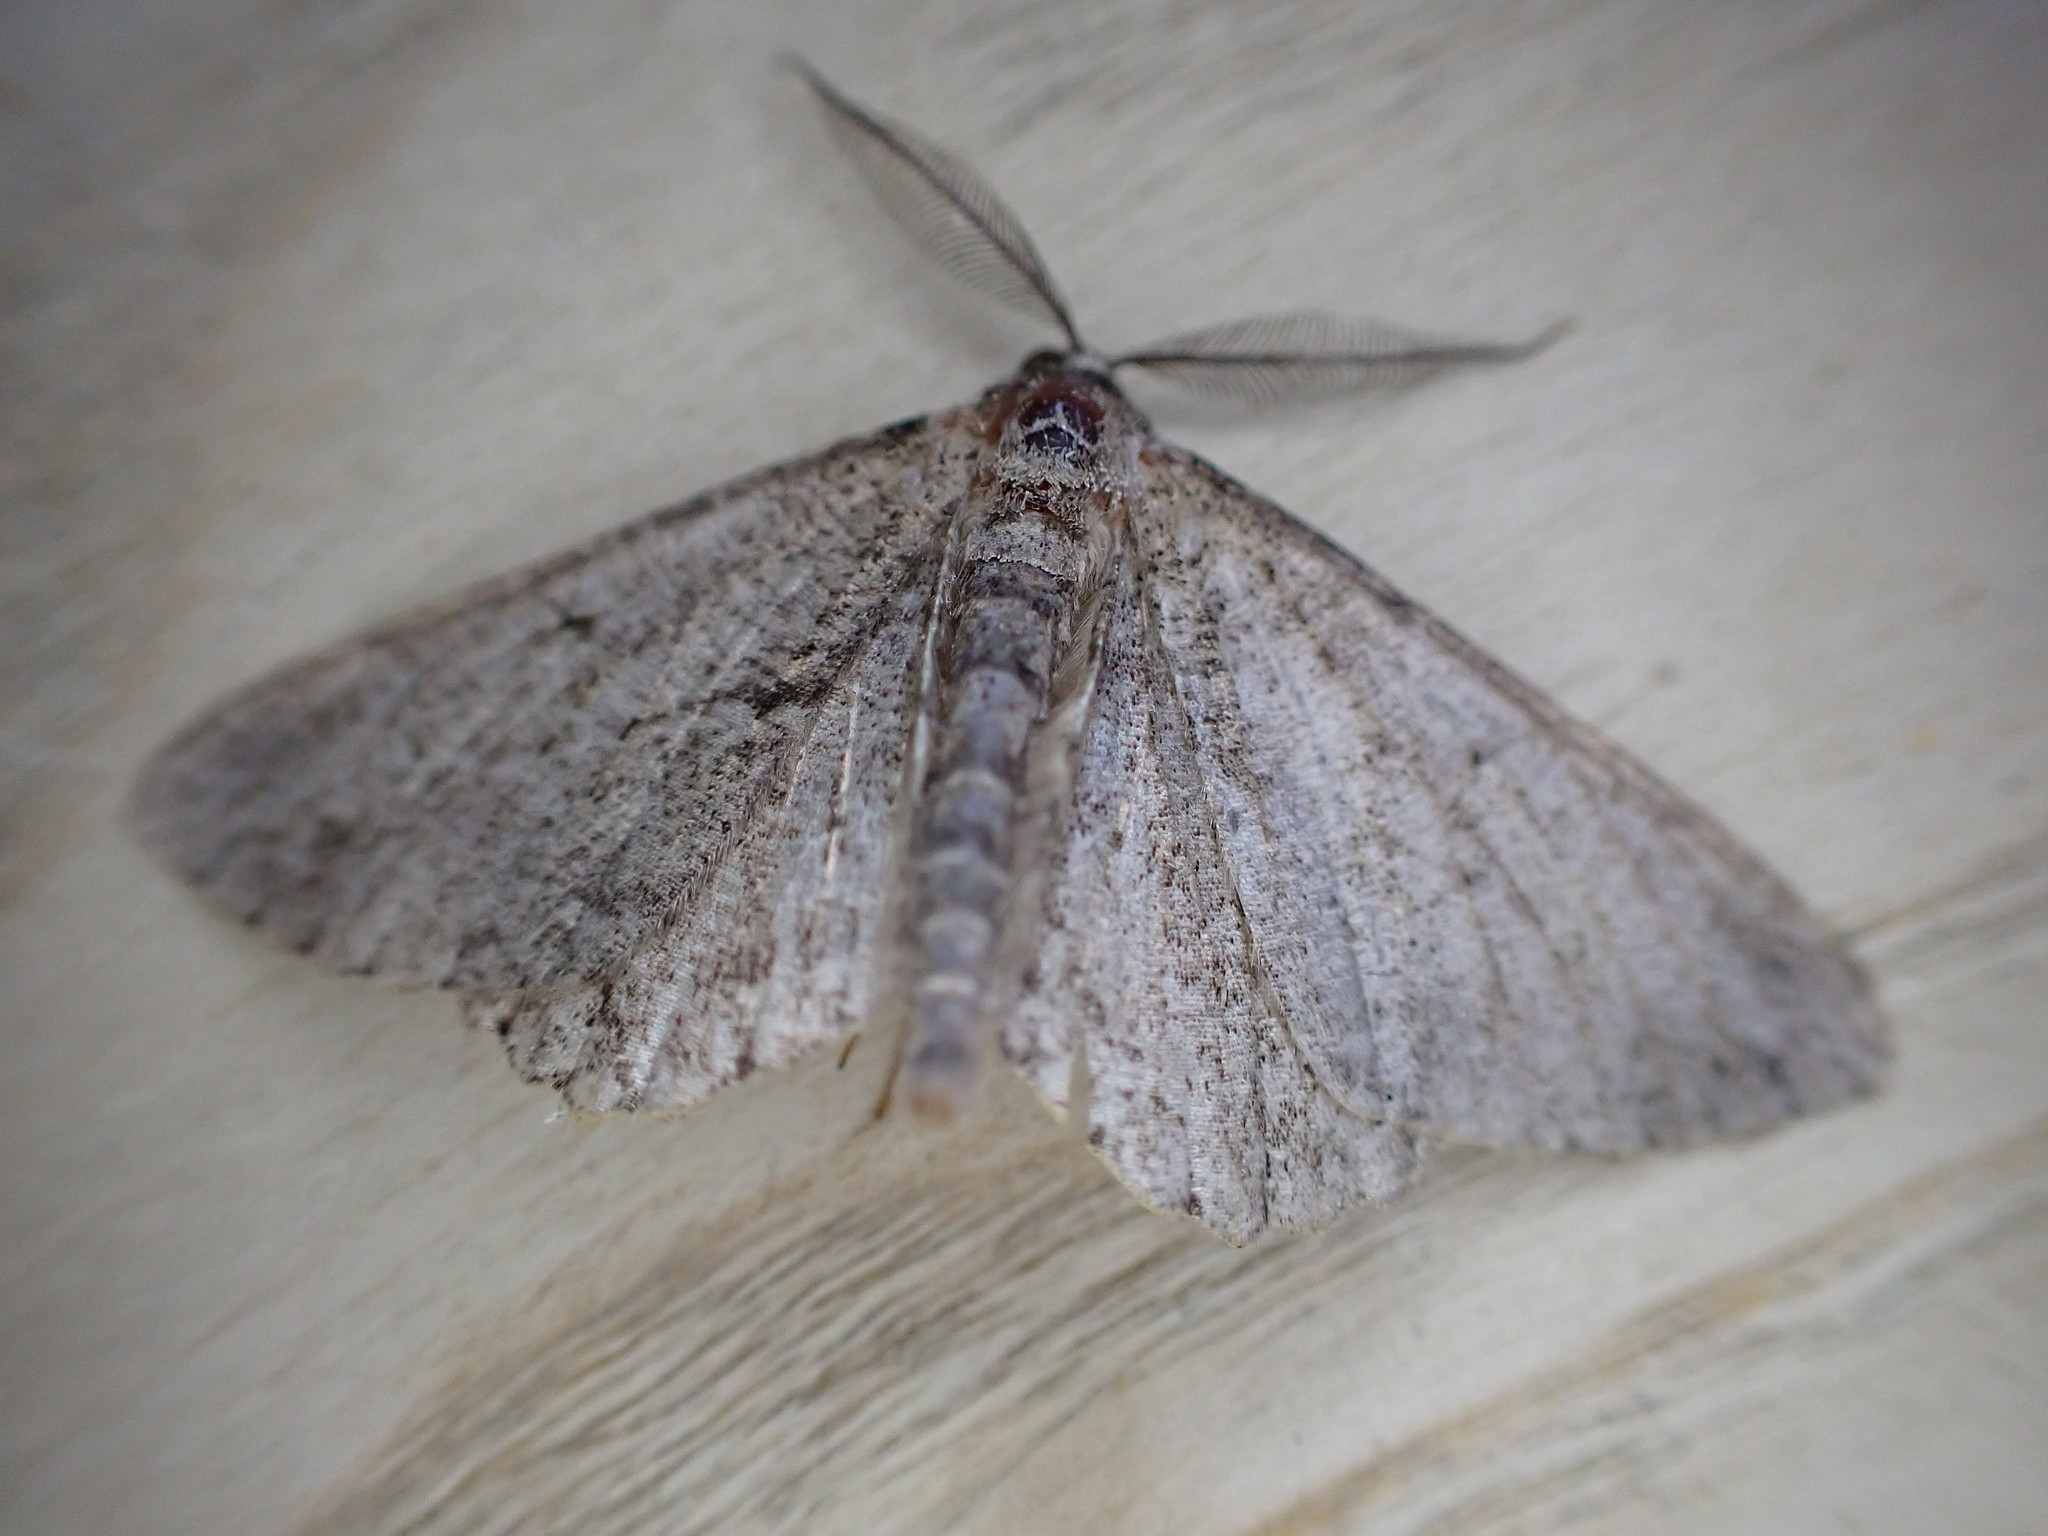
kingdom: Animalia
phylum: Arthropoda
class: Insecta
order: Lepidoptera
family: Geometridae
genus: Peribatodes
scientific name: Peribatodes rhomboidaria
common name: Willow beauty
